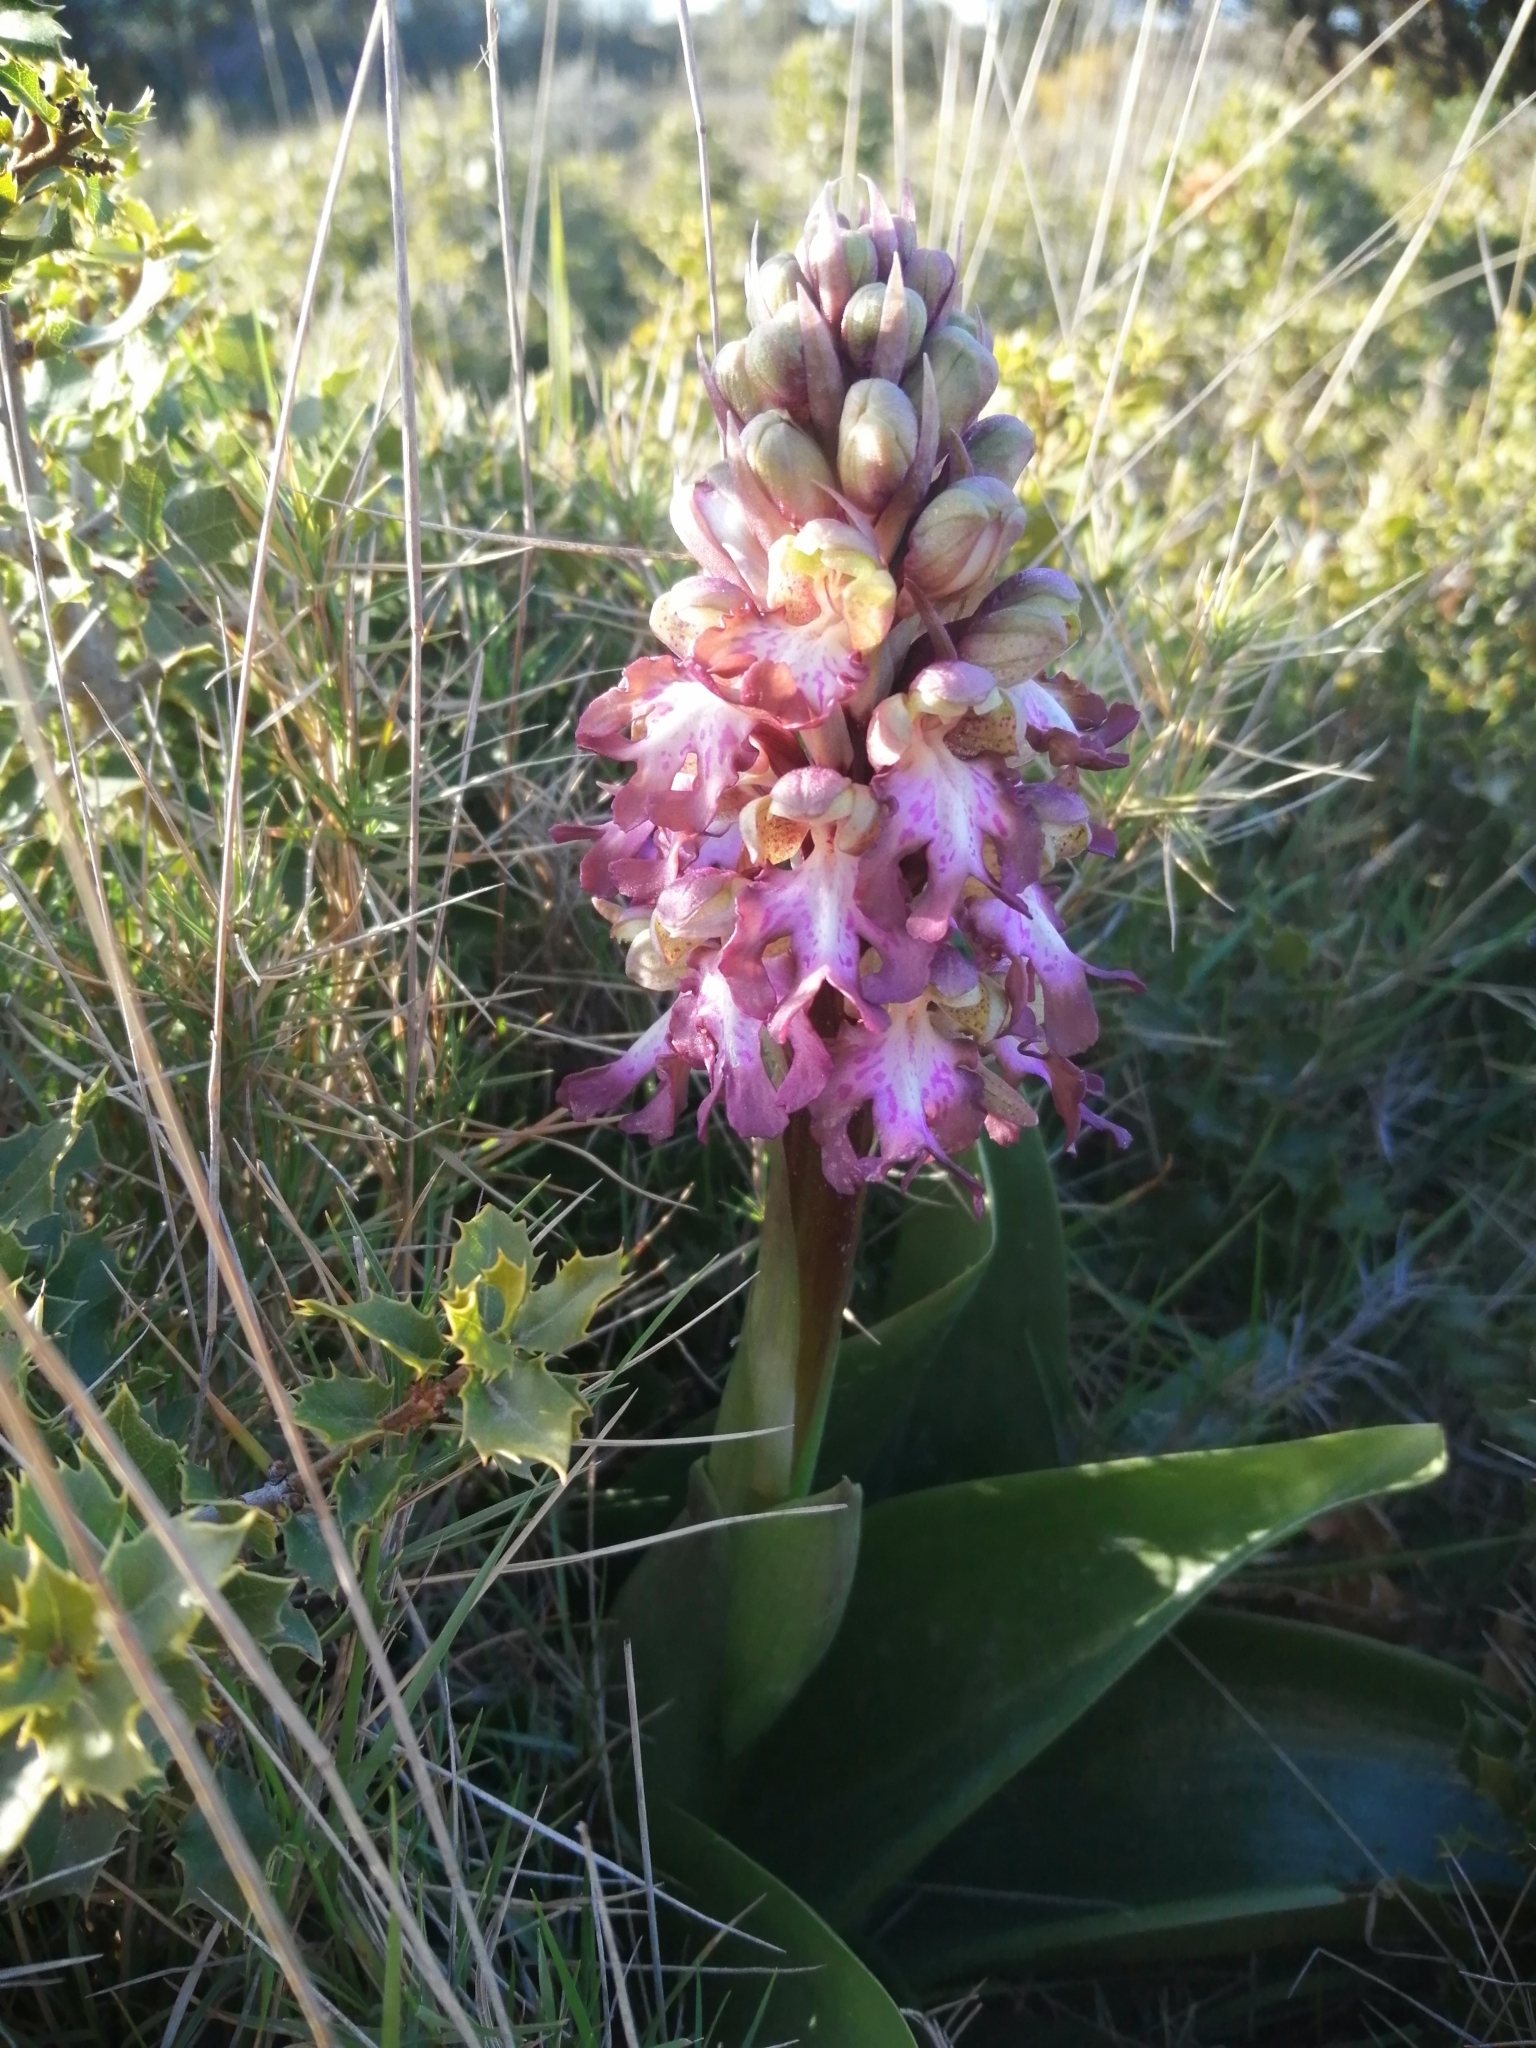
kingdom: Plantae
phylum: Tracheophyta
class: Liliopsida
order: Asparagales
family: Orchidaceae
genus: Himantoglossum
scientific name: Himantoglossum robertianum
